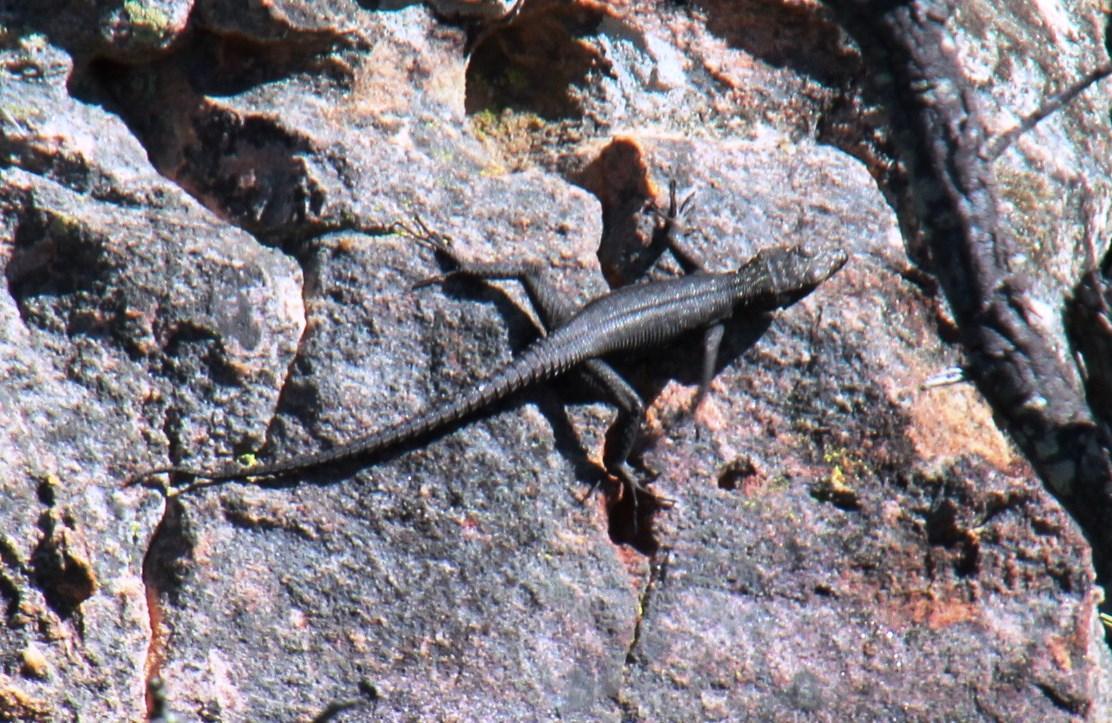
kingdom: Animalia
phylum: Chordata
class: Squamata
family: Cordylidae
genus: Hemicordylus
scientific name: Hemicordylus capensis
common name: Graceful crag lizard
